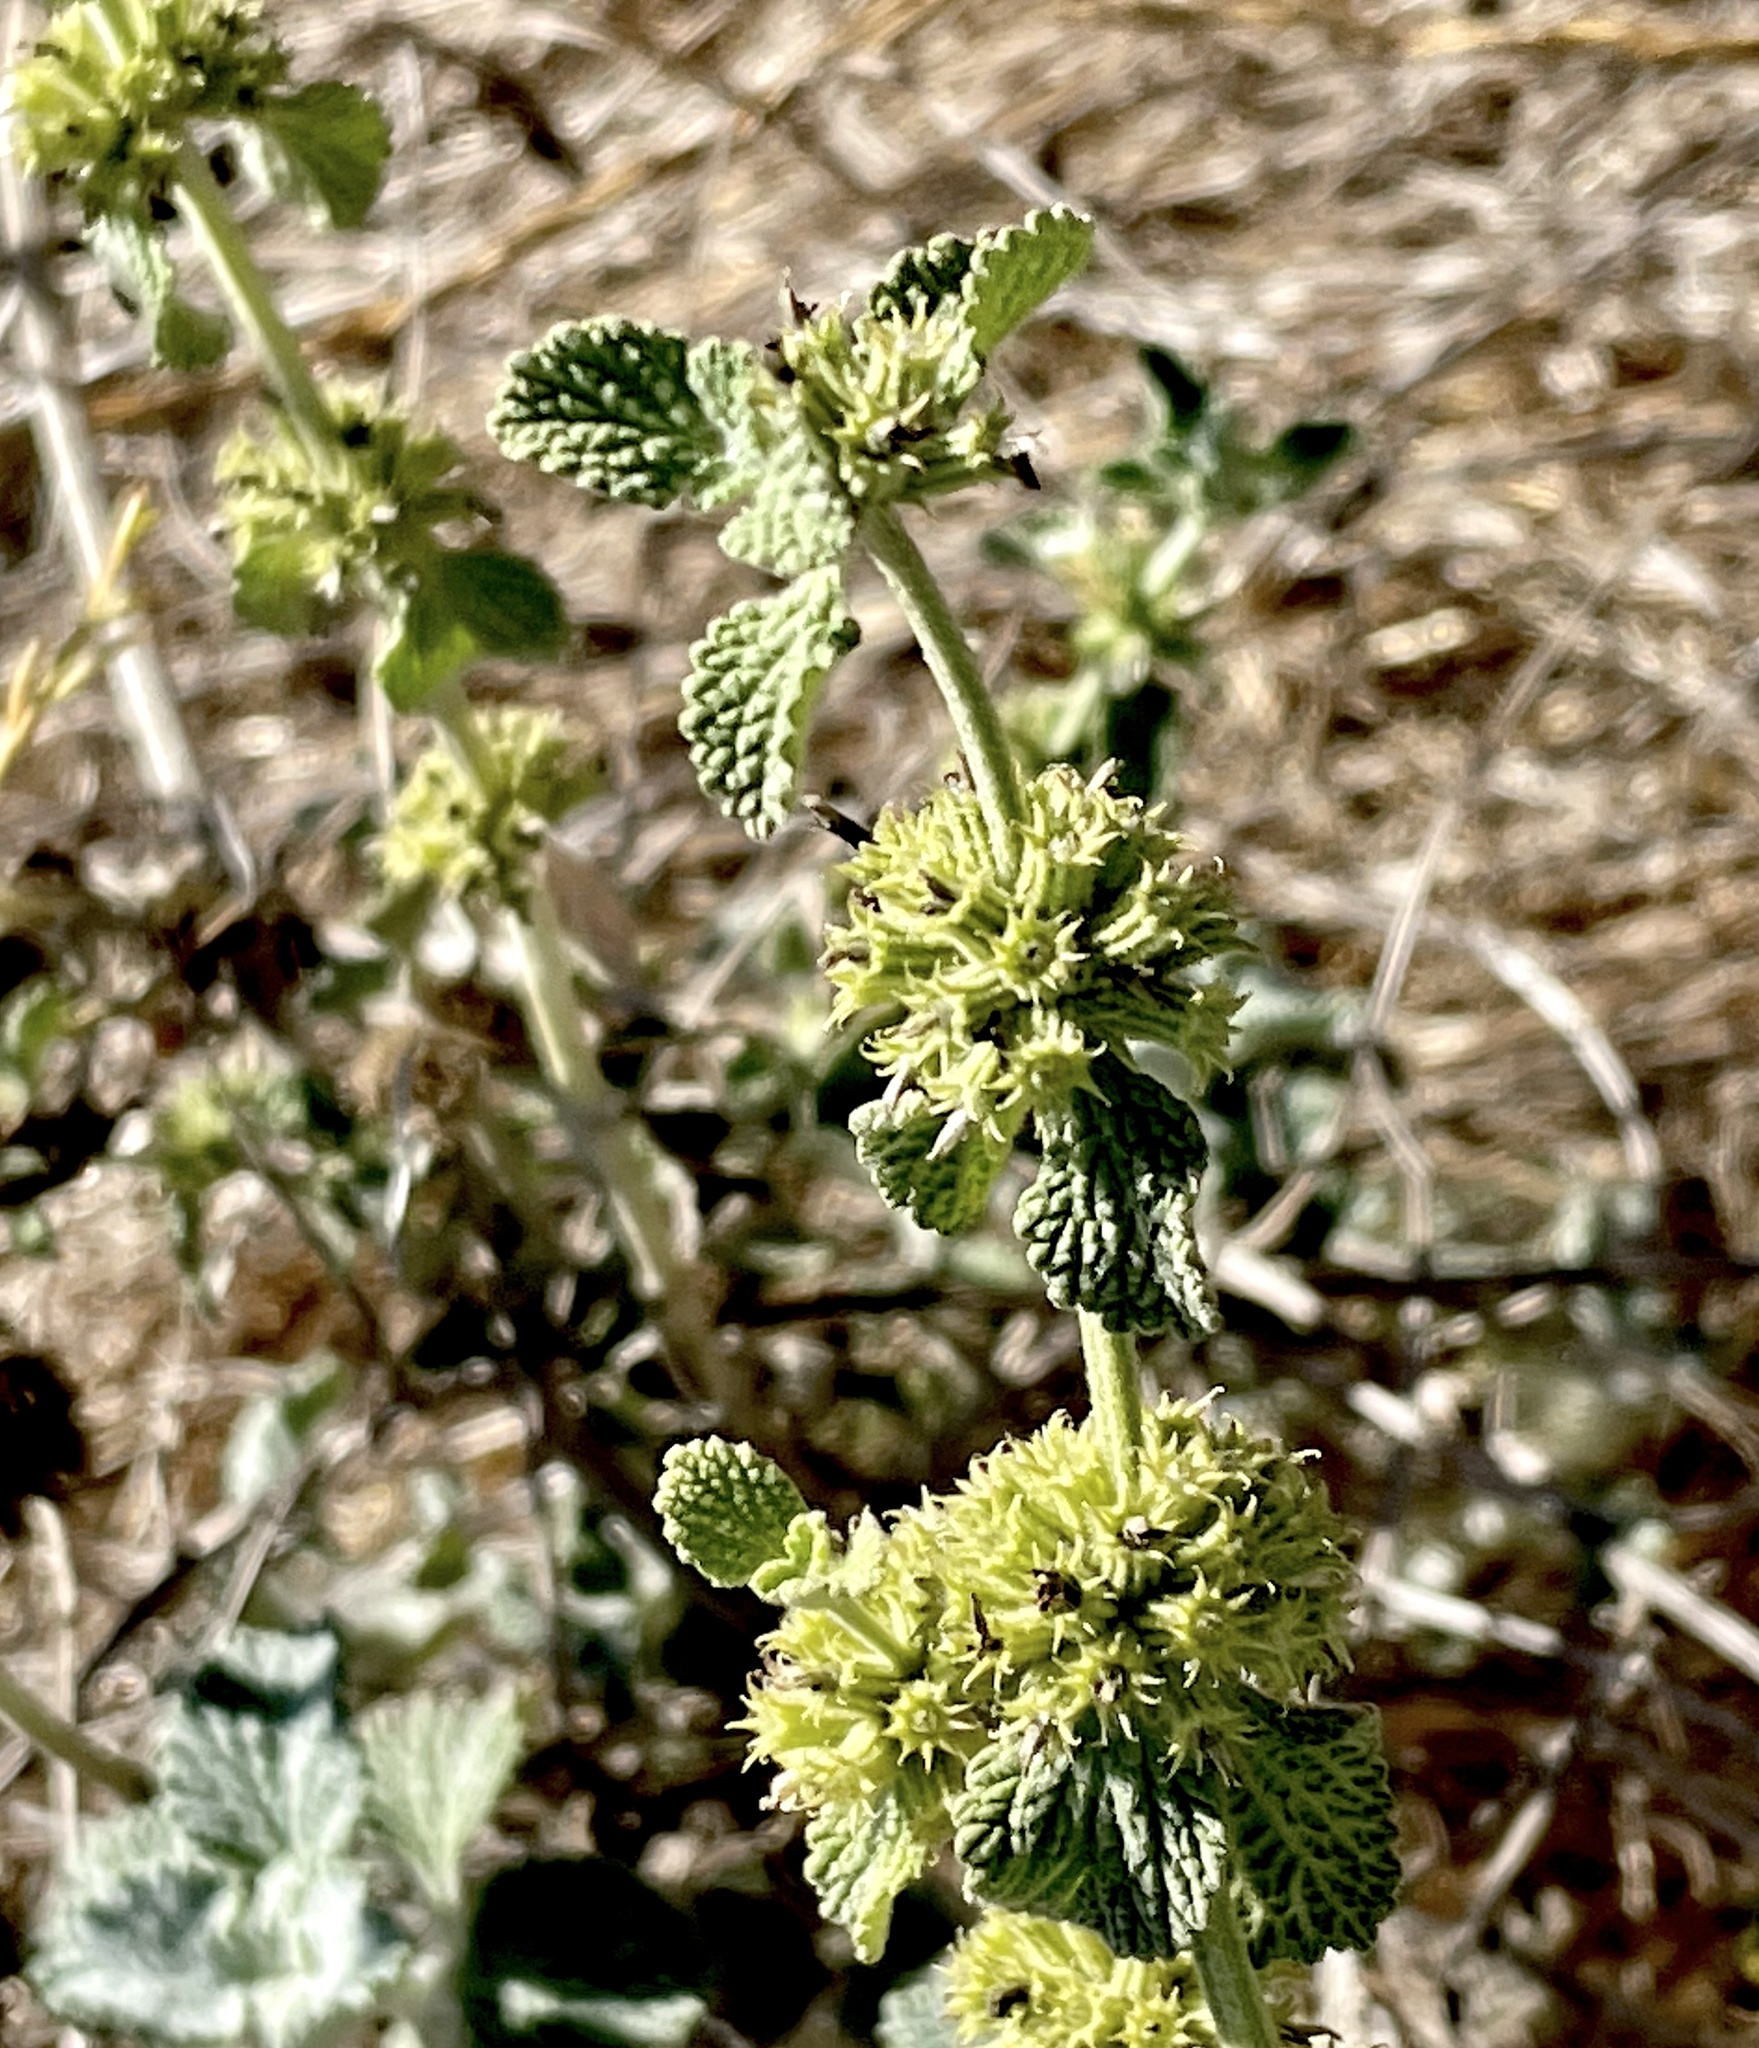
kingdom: Plantae
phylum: Tracheophyta
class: Magnoliopsida
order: Lamiales
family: Lamiaceae
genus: Marrubium
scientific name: Marrubium vulgare
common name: Horehound
